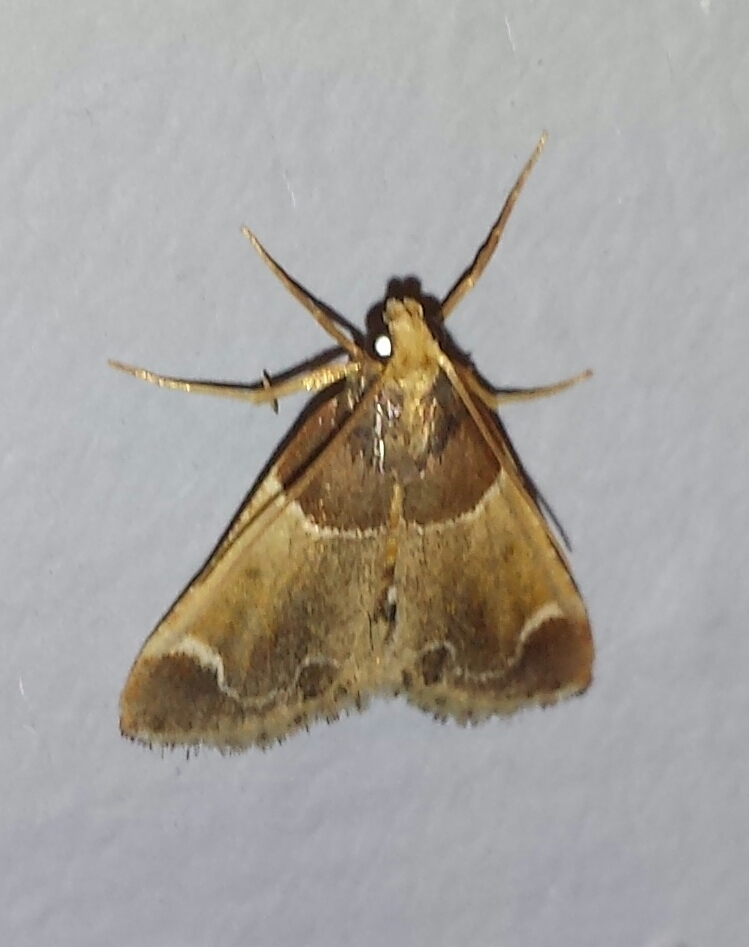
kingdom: Animalia
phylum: Arthropoda
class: Insecta
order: Lepidoptera
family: Pyralidae
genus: Pyralis
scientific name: Pyralis farinalis
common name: Meal moth
